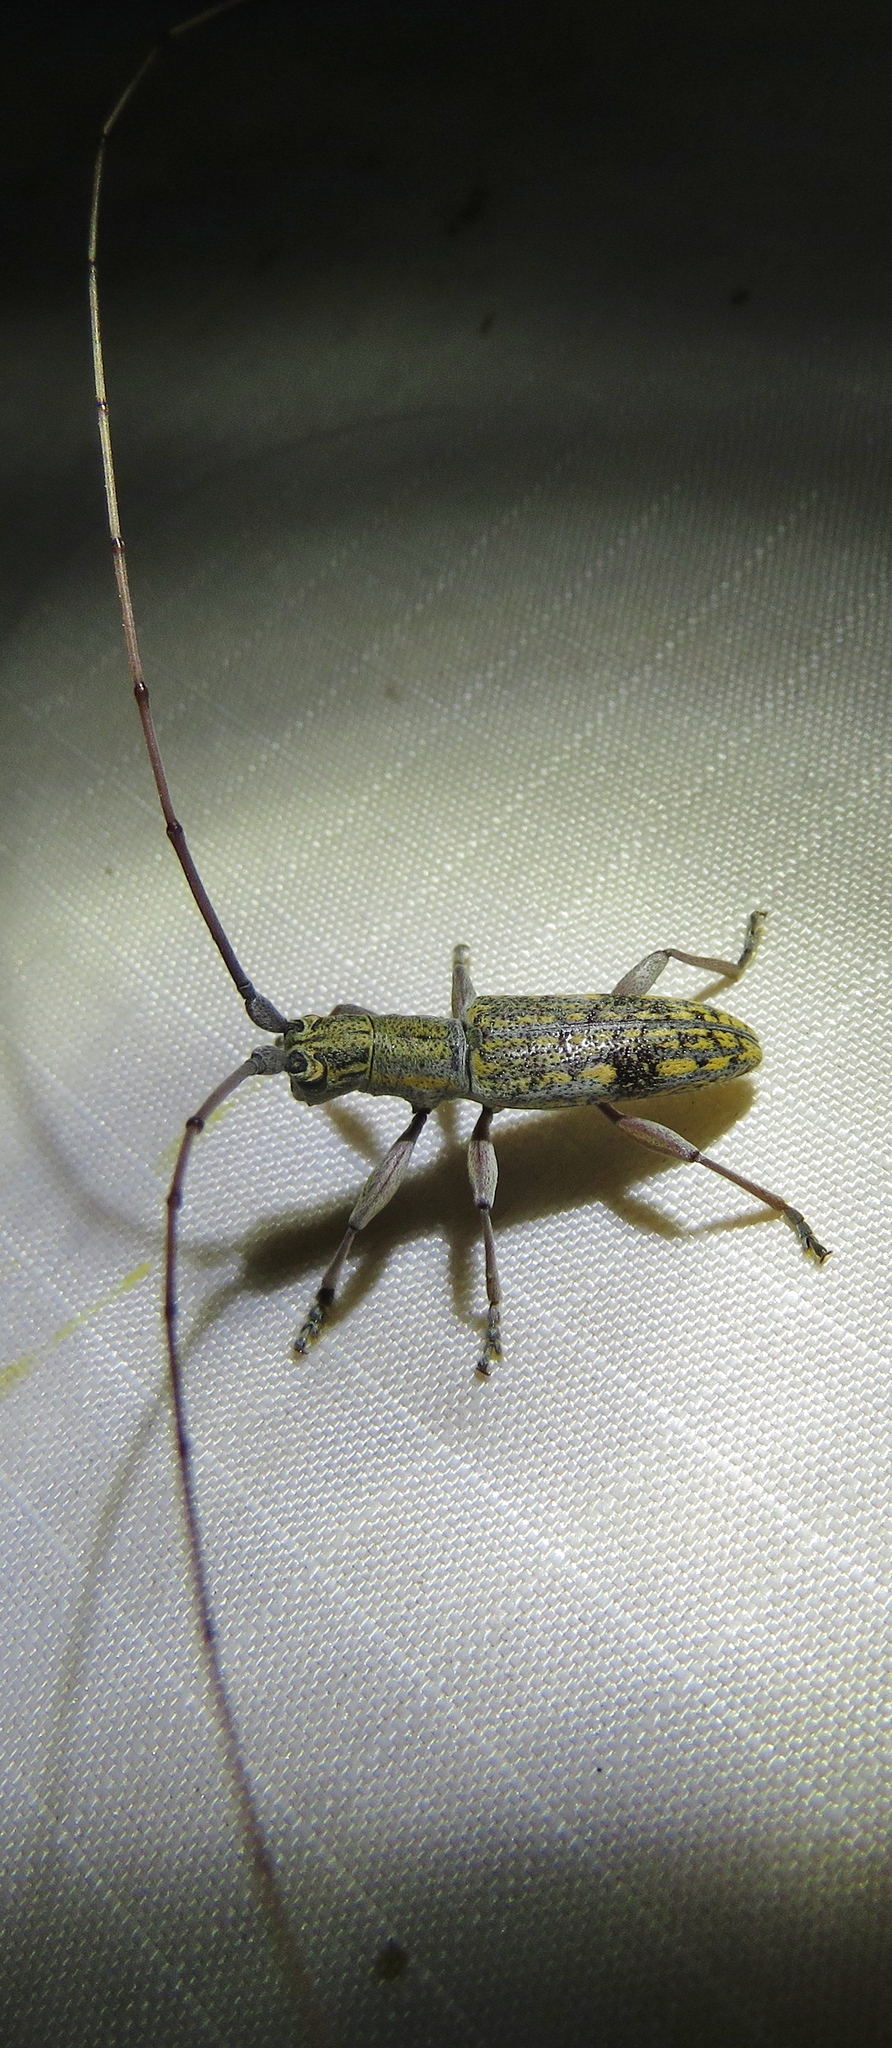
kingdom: Animalia
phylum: Arthropoda
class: Insecta
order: Coleoptera
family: Cerambycidae
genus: Dorcaschema
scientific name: Dorcaschema alternatum
